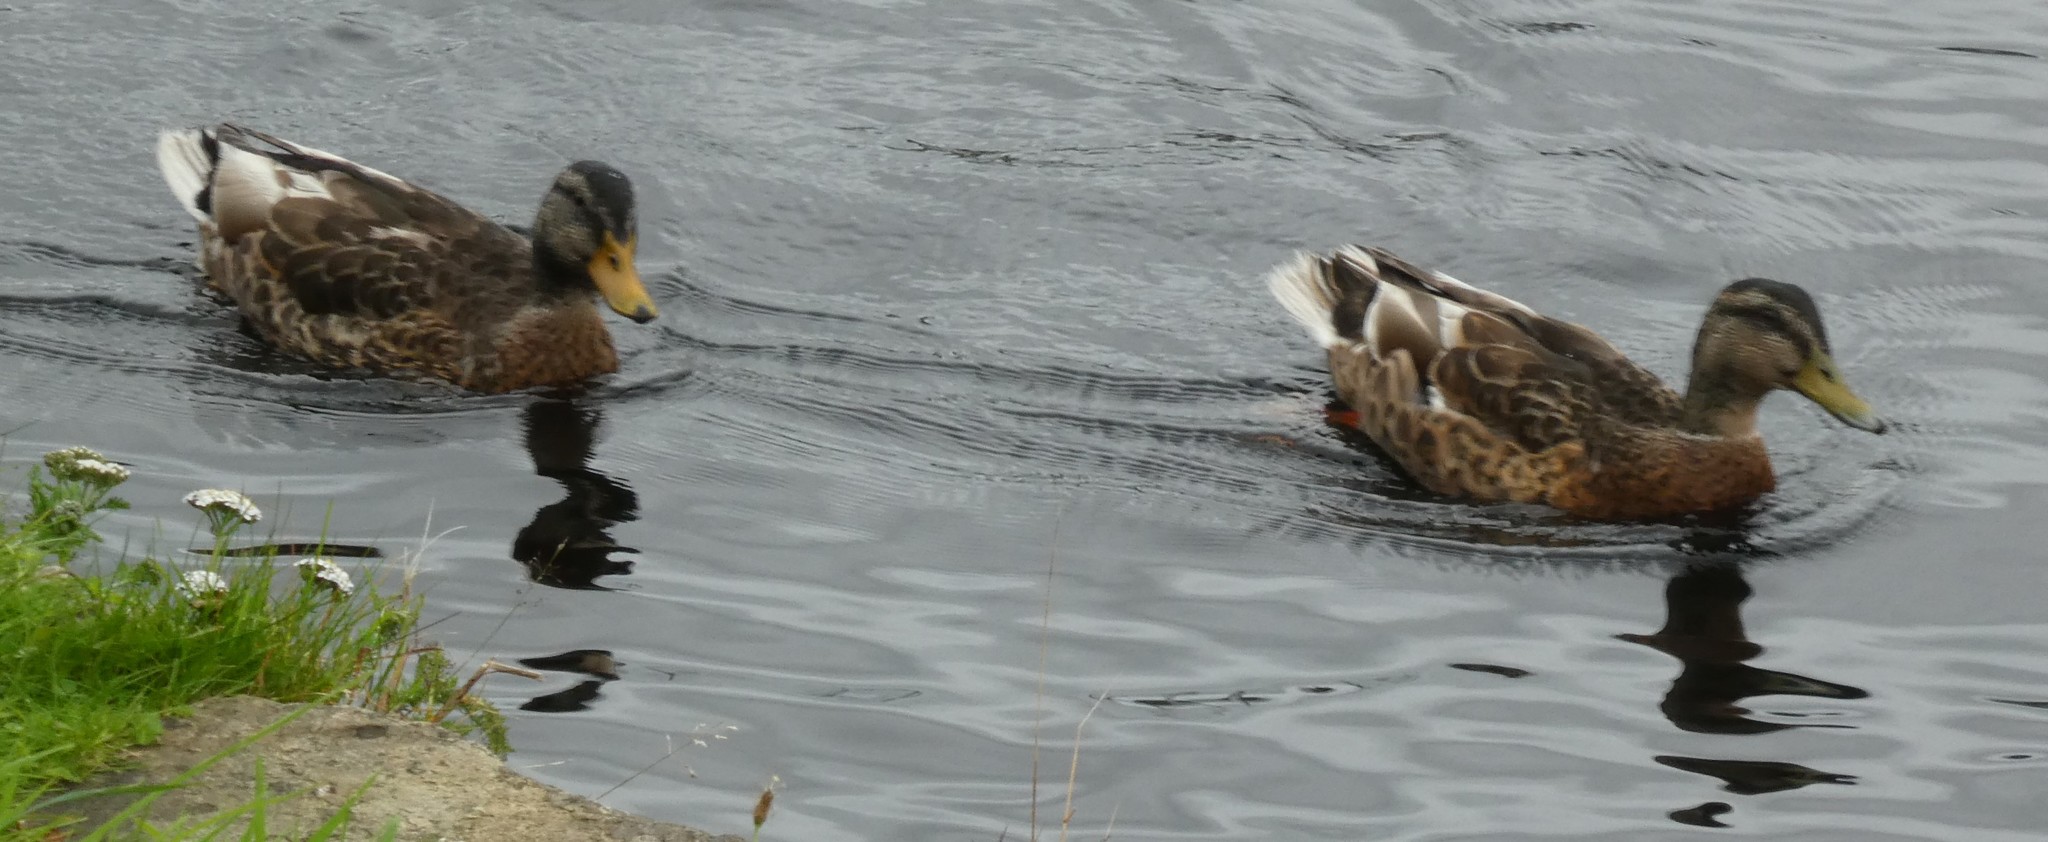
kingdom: Animalia
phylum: Chordata
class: Aves
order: Anseriformes
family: Anatidae
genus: Anas
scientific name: Anas platyrhynchos
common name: Mallard
